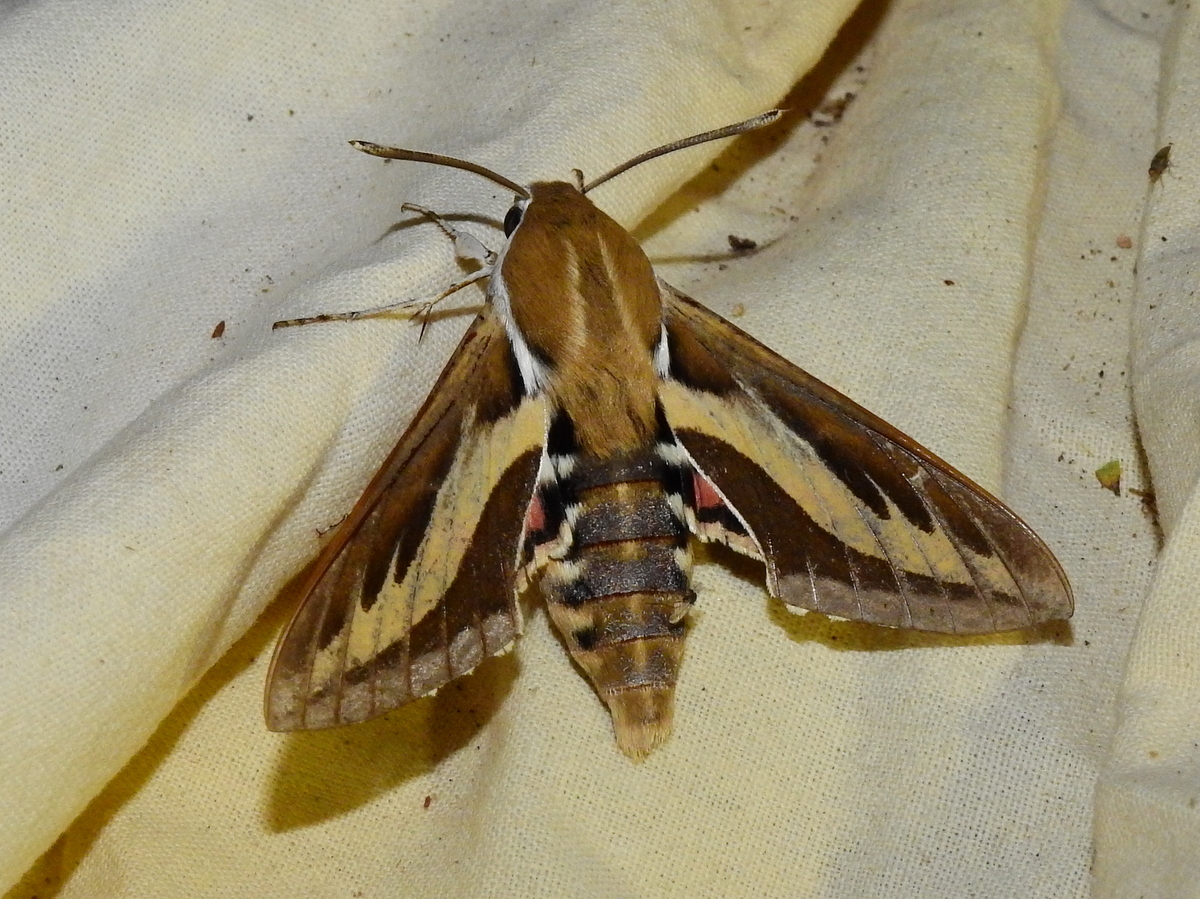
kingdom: Animalia
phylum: Arthropoda
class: Insecta
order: Lepidoptera
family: Sphingidae
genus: Hyles
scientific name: Hyles euphorbiarum
